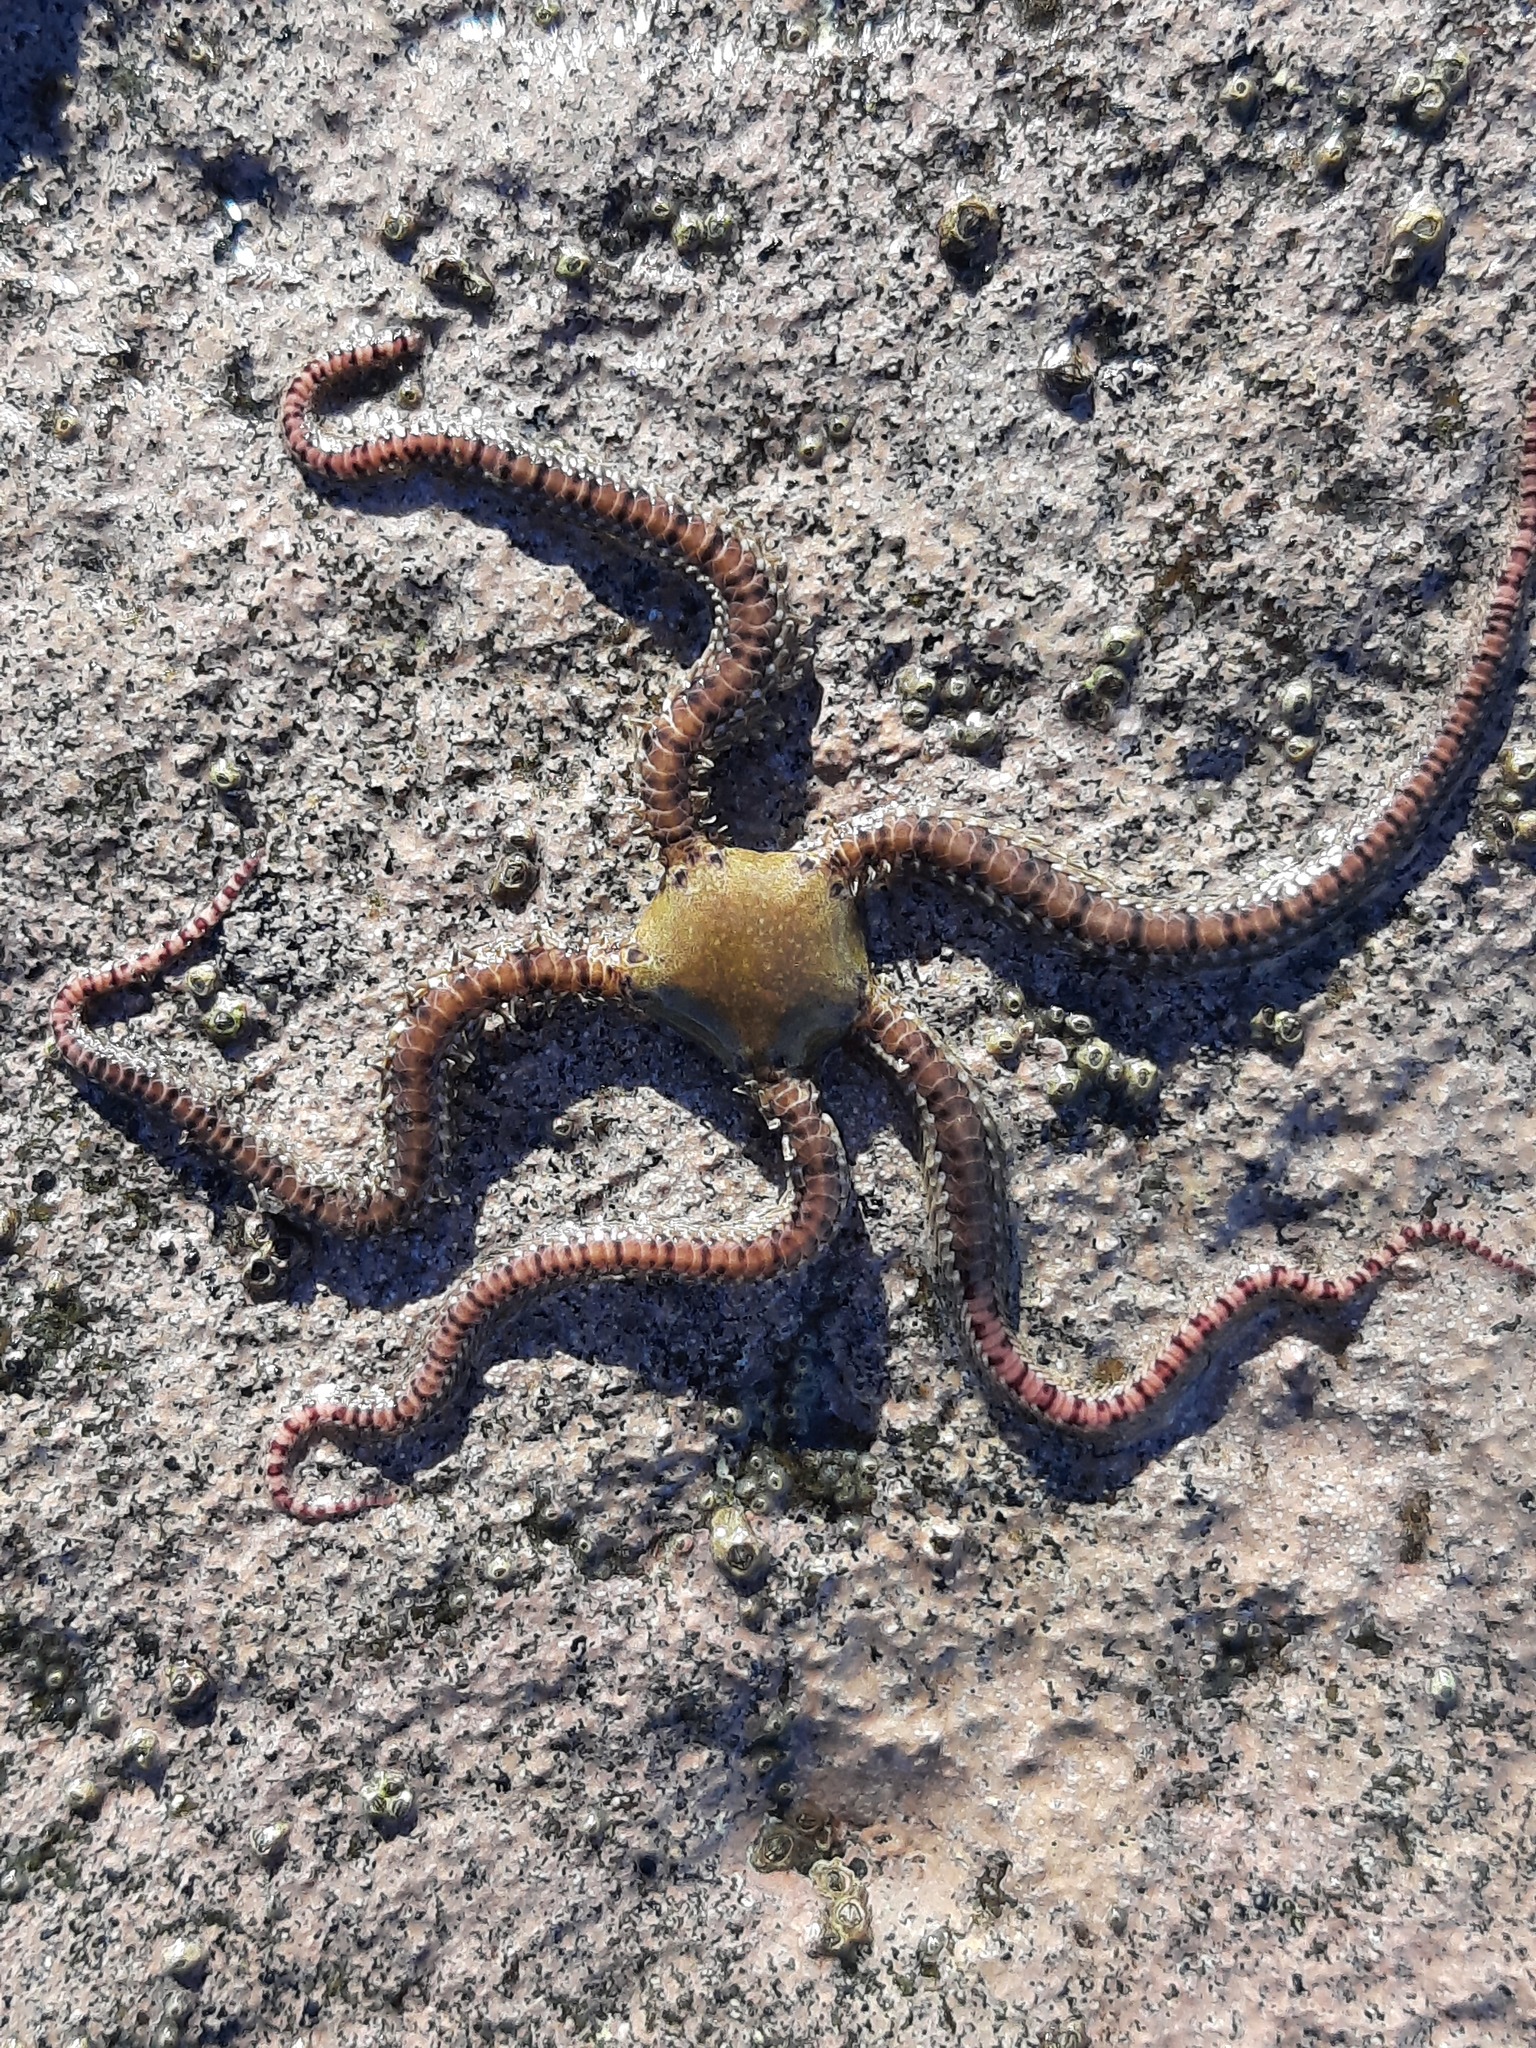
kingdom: Animalia
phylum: Echinodermata
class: Ophiuroidea
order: Amphilepidida
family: Ophionereididae
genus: Ophionereis
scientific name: Ophionereis fasciata
